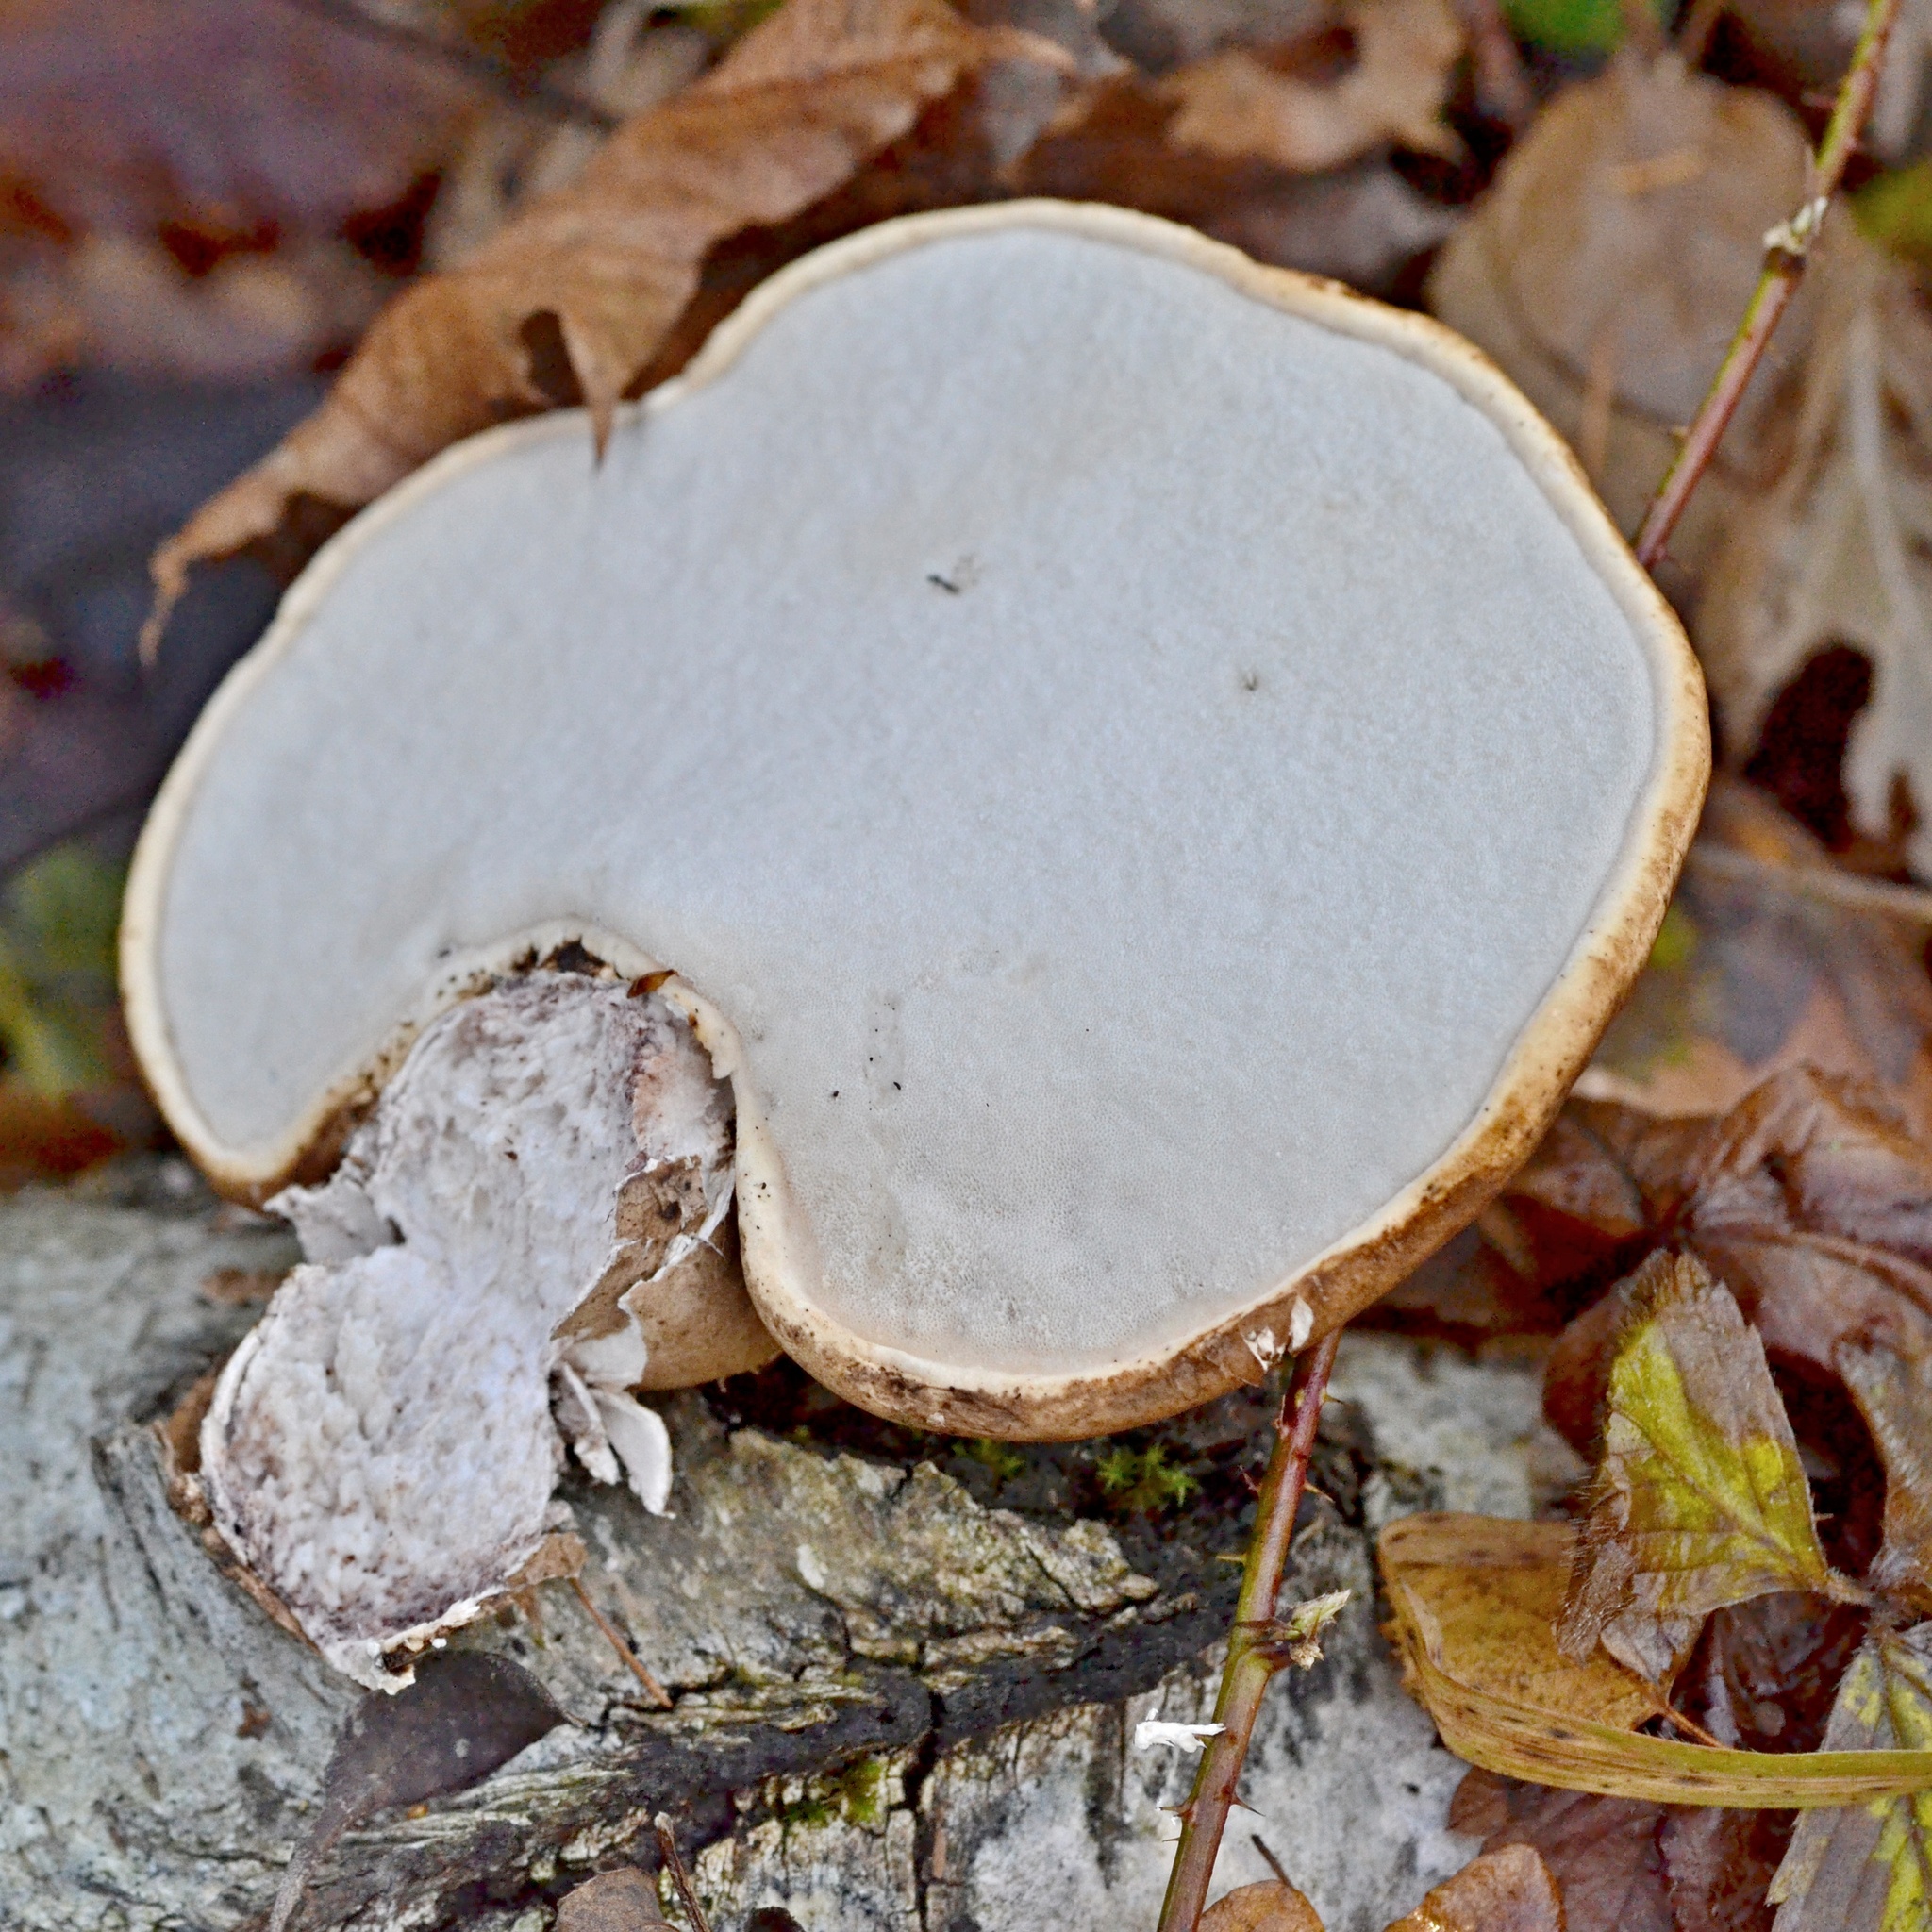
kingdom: Fungi
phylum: Basidiomycota
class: Agaricomycetes
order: Polyporales
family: Fomitopsidaceae
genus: Fomitopsis
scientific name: Fomitopsis betulina
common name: Birch polypore
